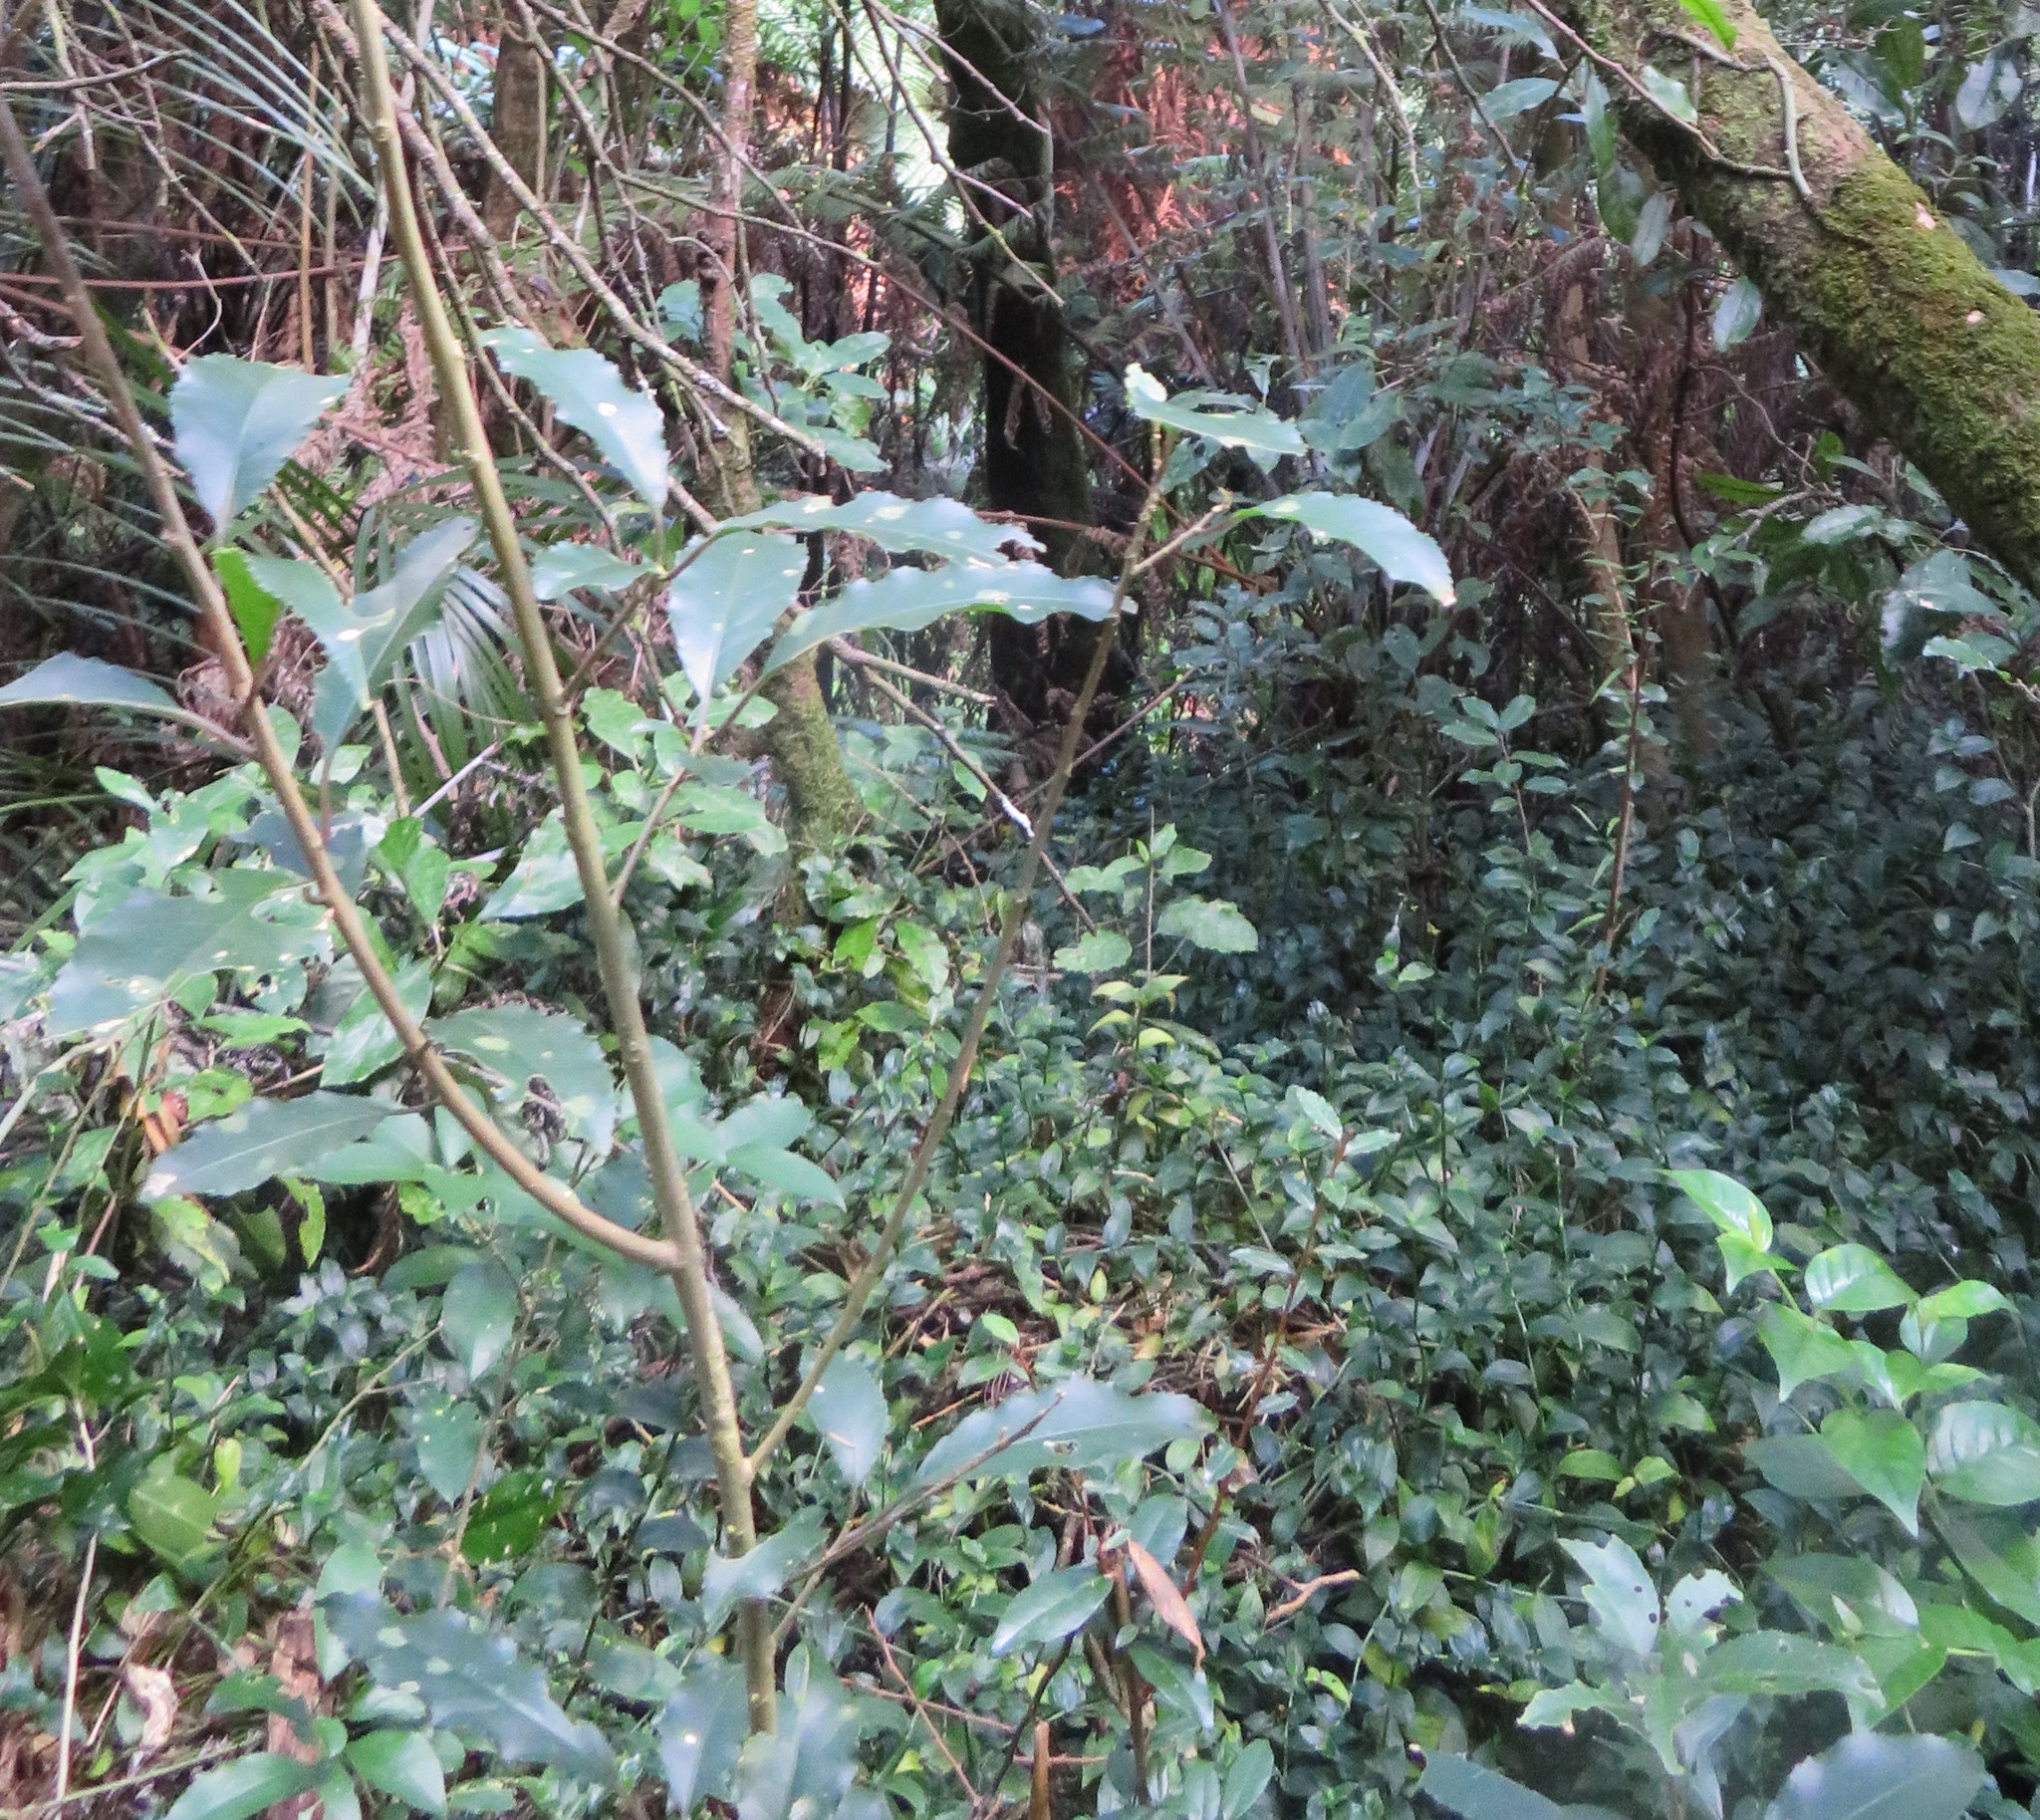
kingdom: Plantae
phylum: Tracheophyta
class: Magnoliopsida
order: Malpighiales
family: Violaceae
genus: Melicytus
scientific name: Melicytus ramiflorus
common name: Mahoe
